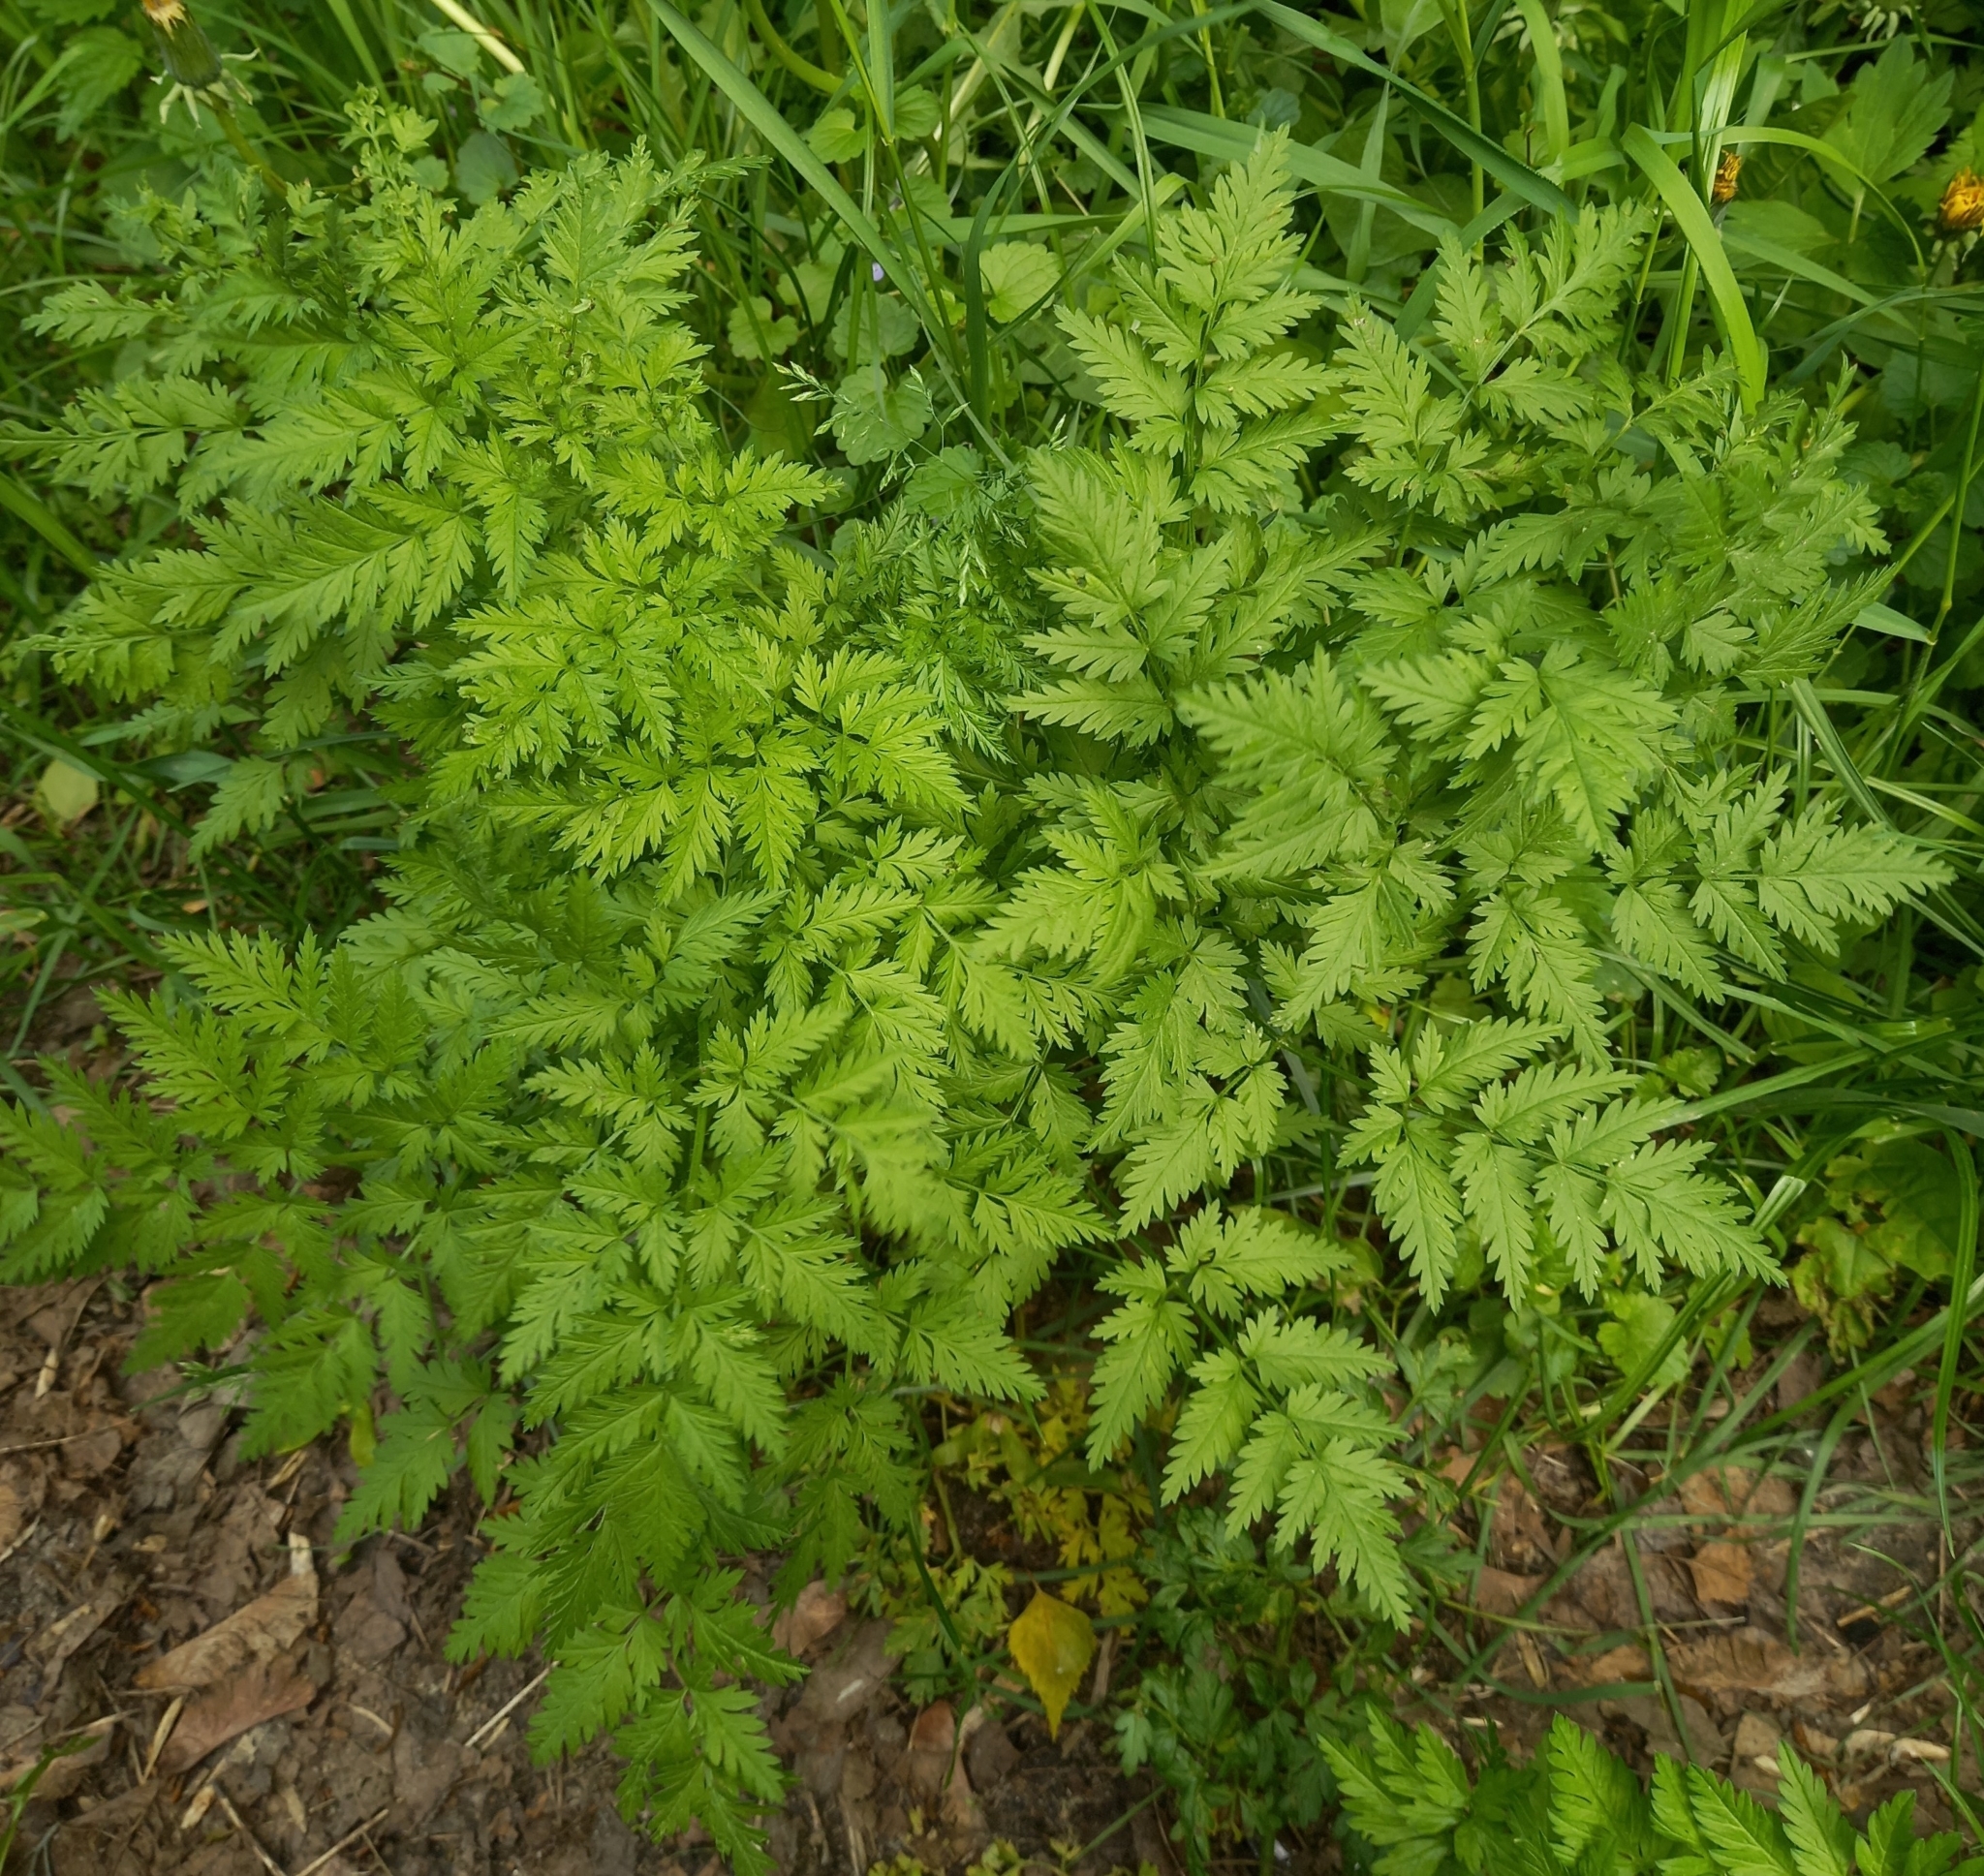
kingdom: Plantae
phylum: Tracheophyta
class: Magnoliopsida
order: Apiales
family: Apiaceae
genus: Anthriscus
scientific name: Anthriscus sylvestris
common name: Cow parsley
